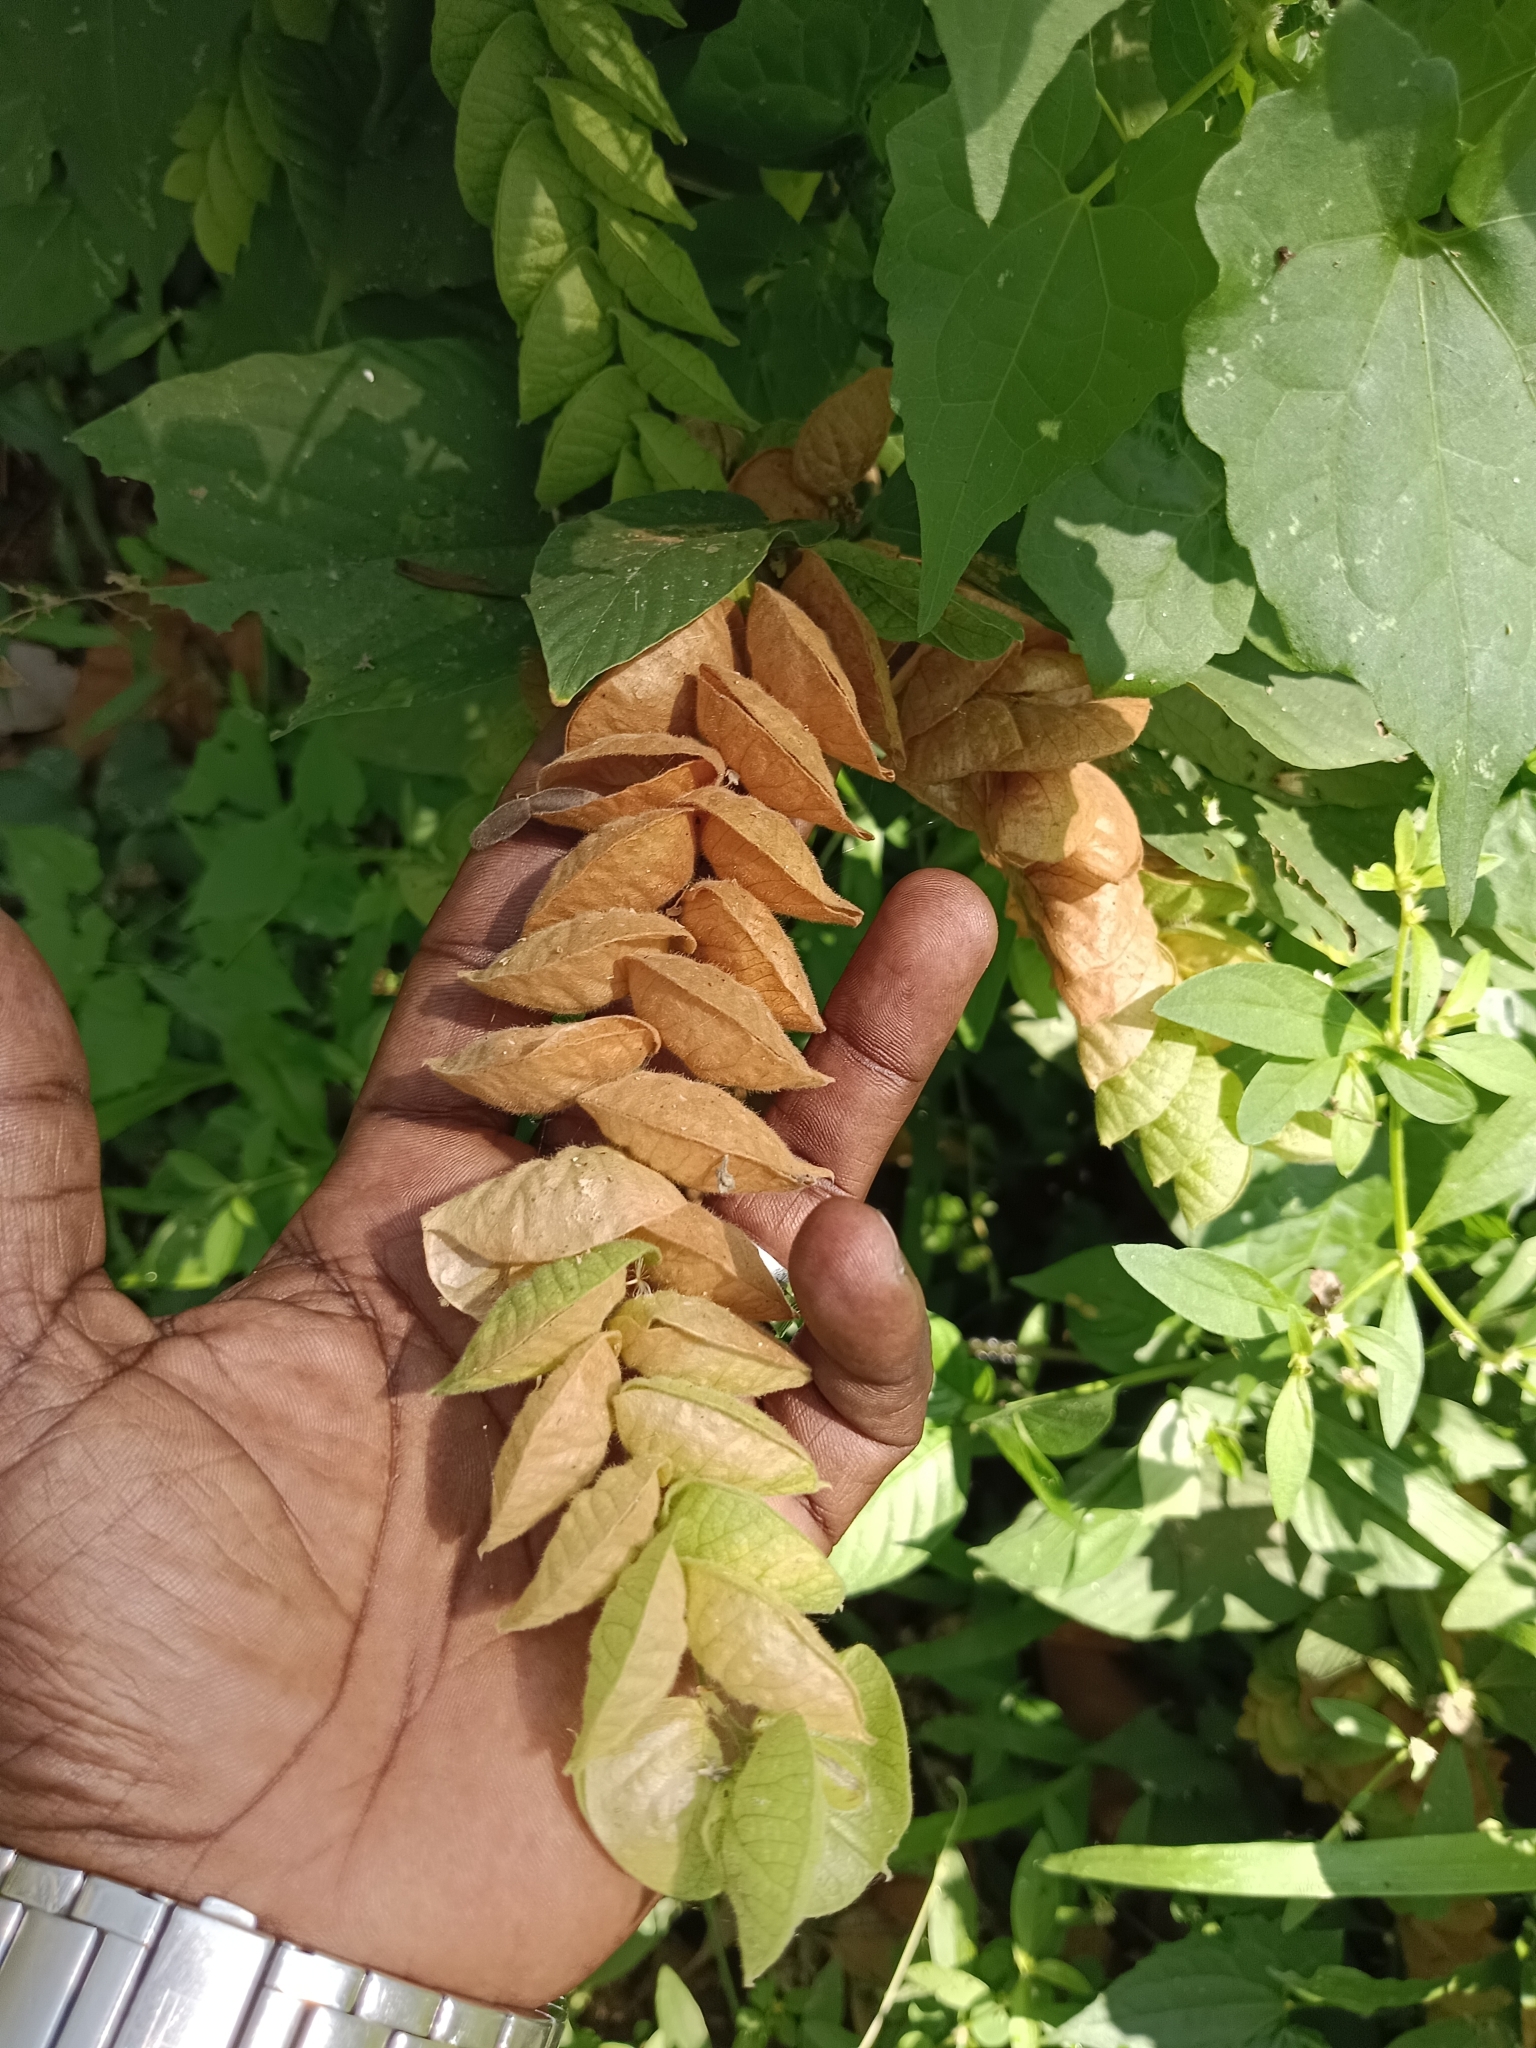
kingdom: Plantae
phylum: Tracheophyta
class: Magnoliopsida
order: Fabales
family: Fabaceae
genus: Flemingia
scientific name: Flemingia strobilifera
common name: Wild hops
